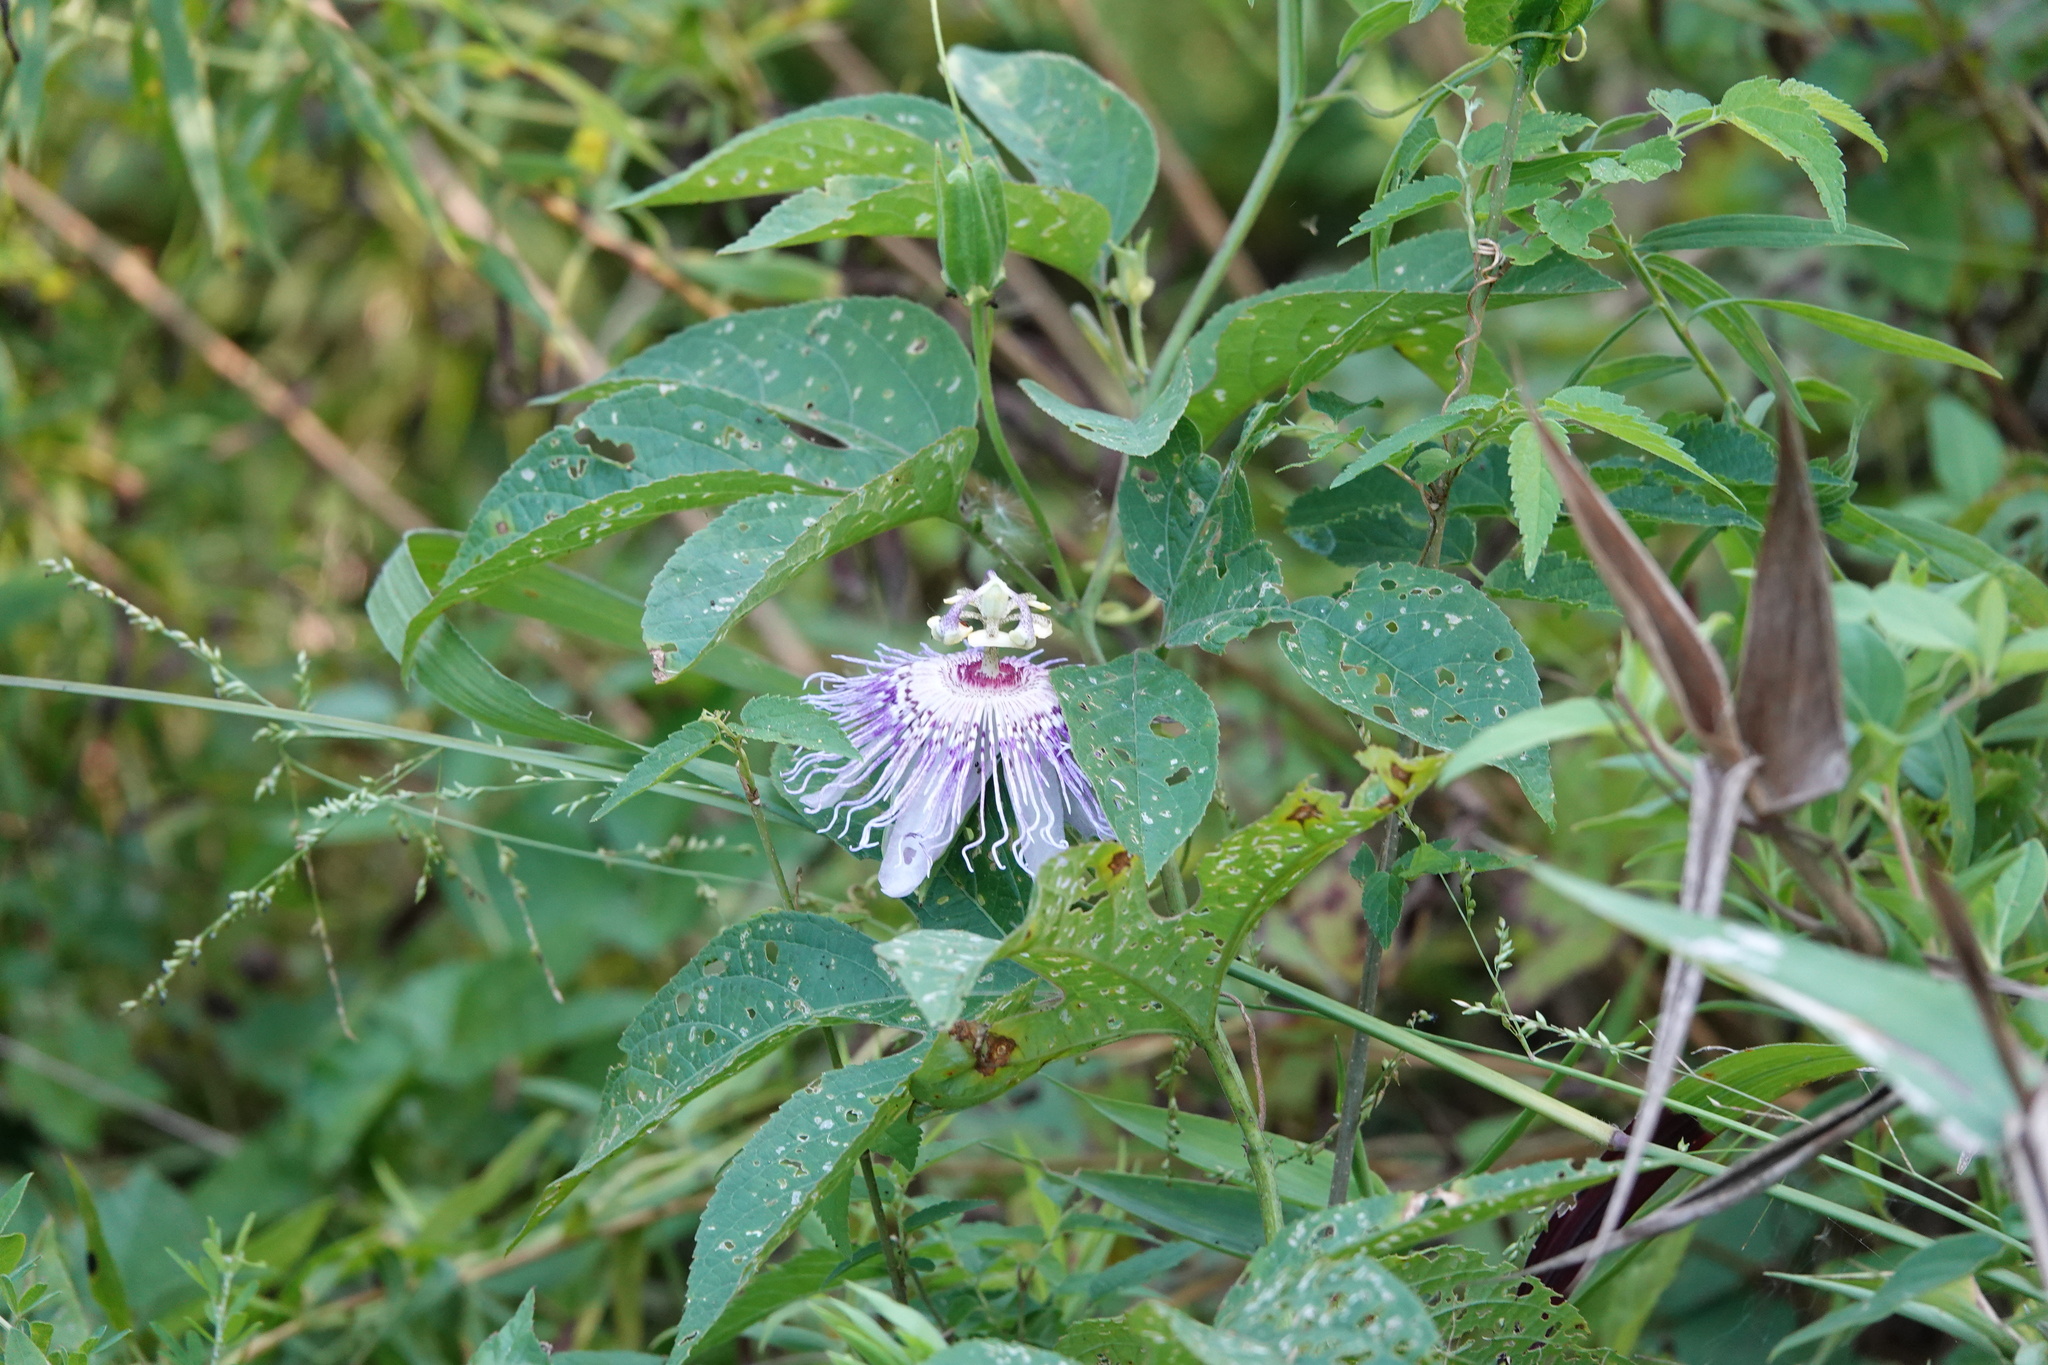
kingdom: Plantae
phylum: Tracheophyta
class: Magnoliopsida
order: Malpighiales
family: Passifloraceae
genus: Passiflora
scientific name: Passiflora incarnata
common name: Apricot-vine
